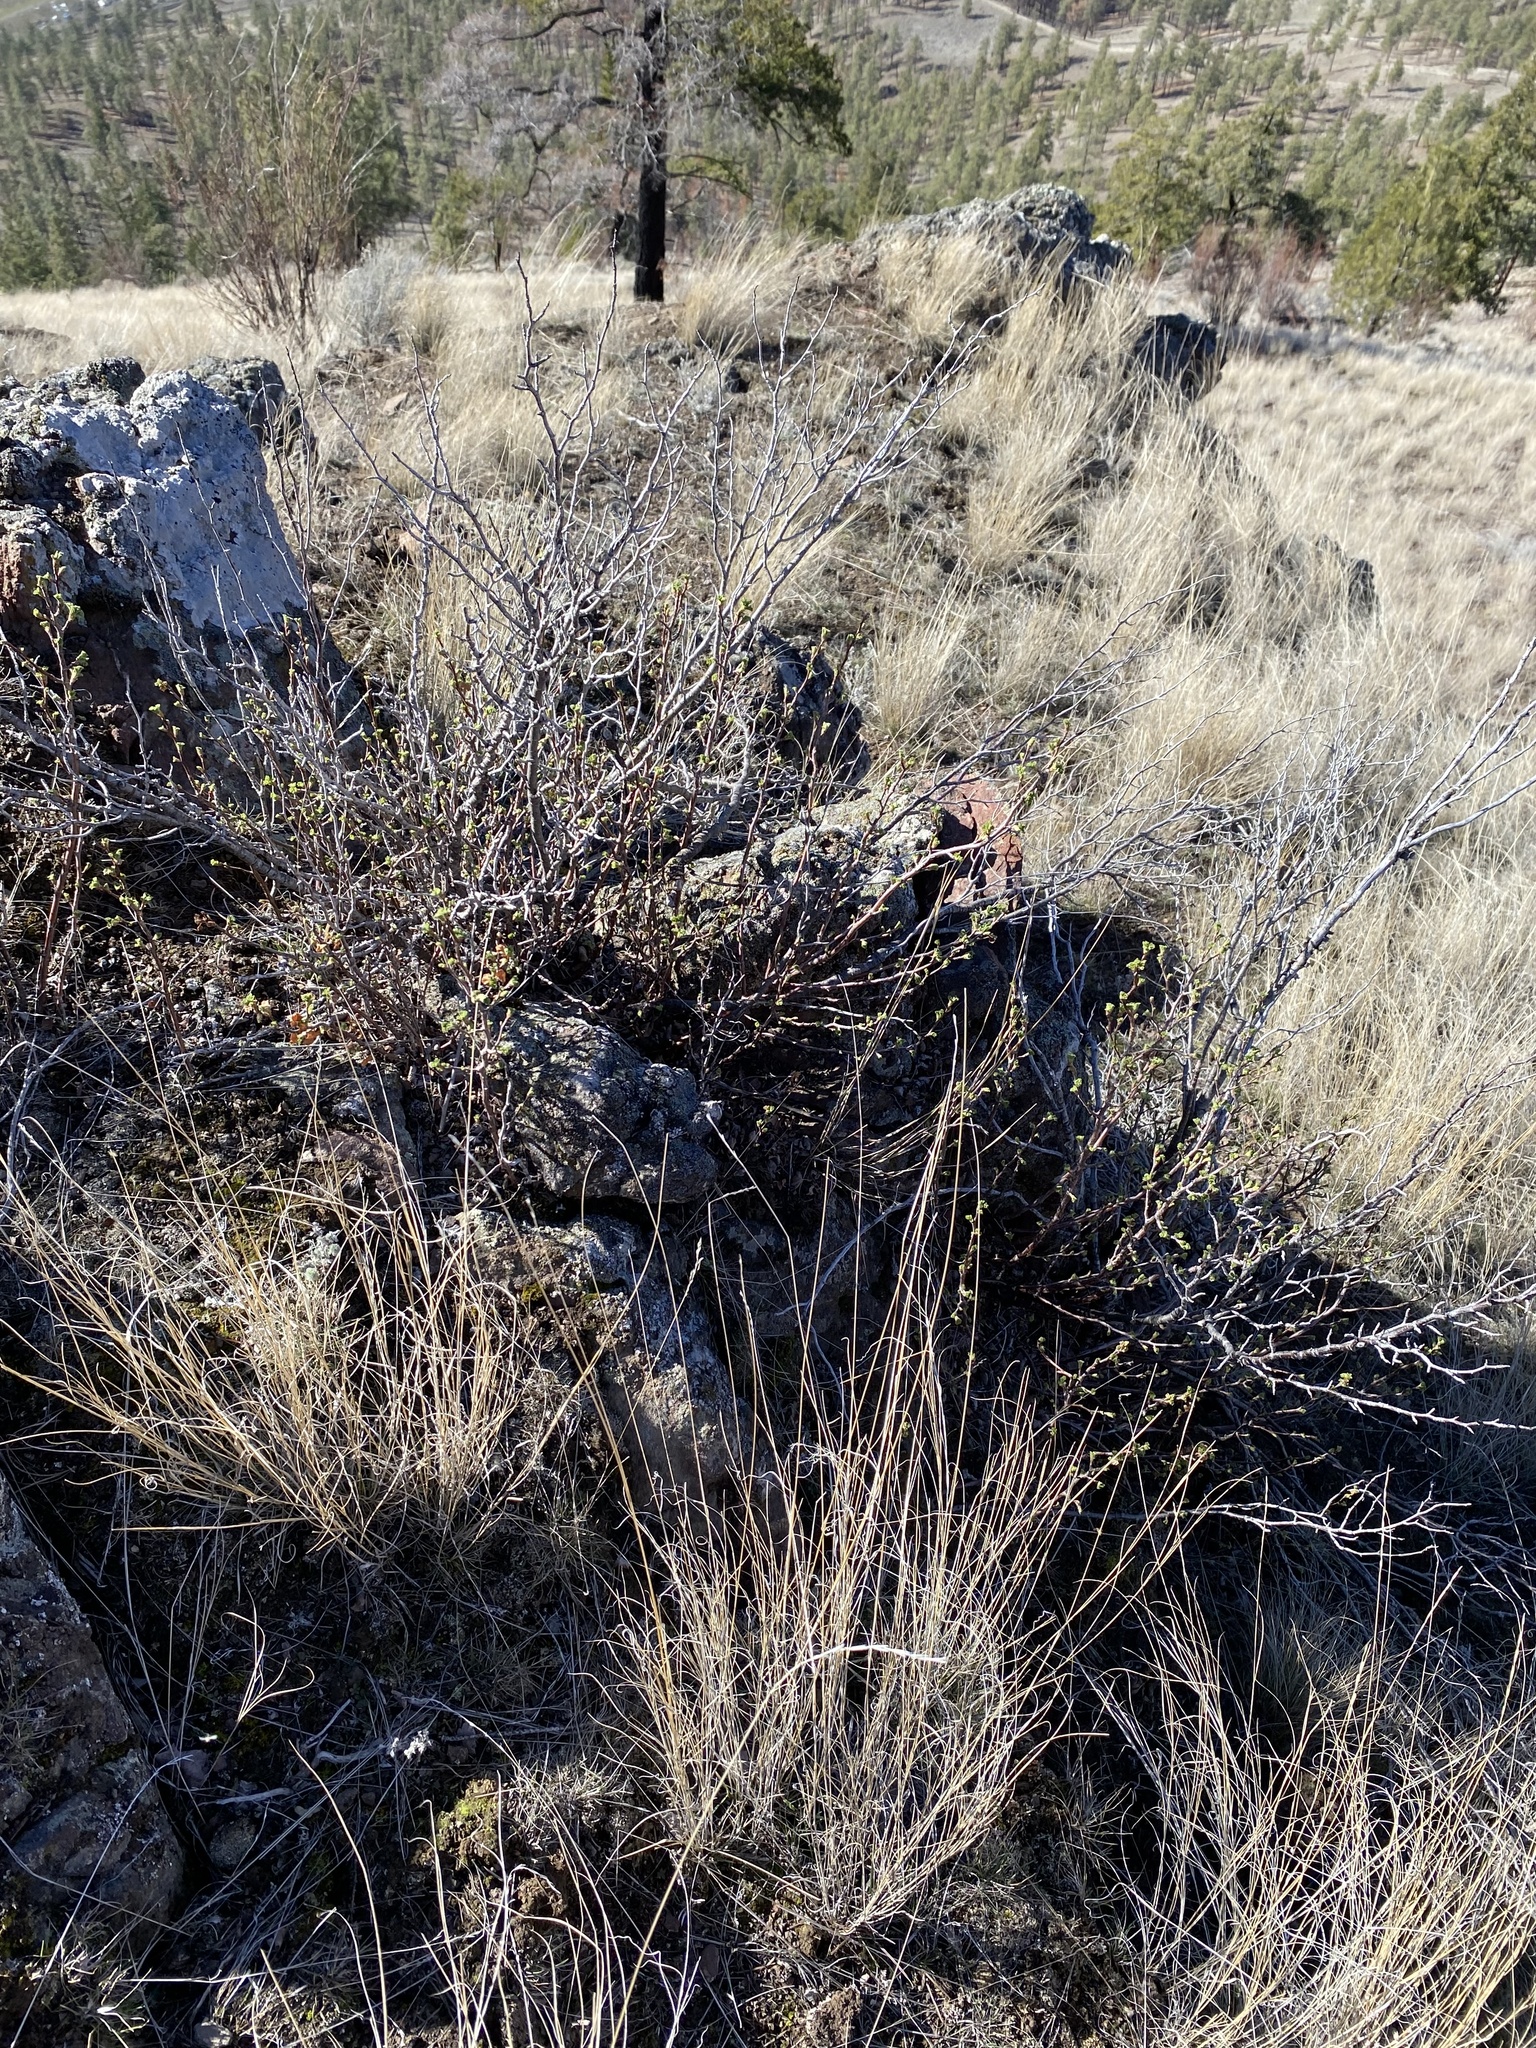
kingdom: Plantae
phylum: Tracheophyta
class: Magnoliopsida
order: Saxifragales
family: Grossulariaceae
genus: Ribes
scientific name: Ribes cereum
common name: Wax currant
